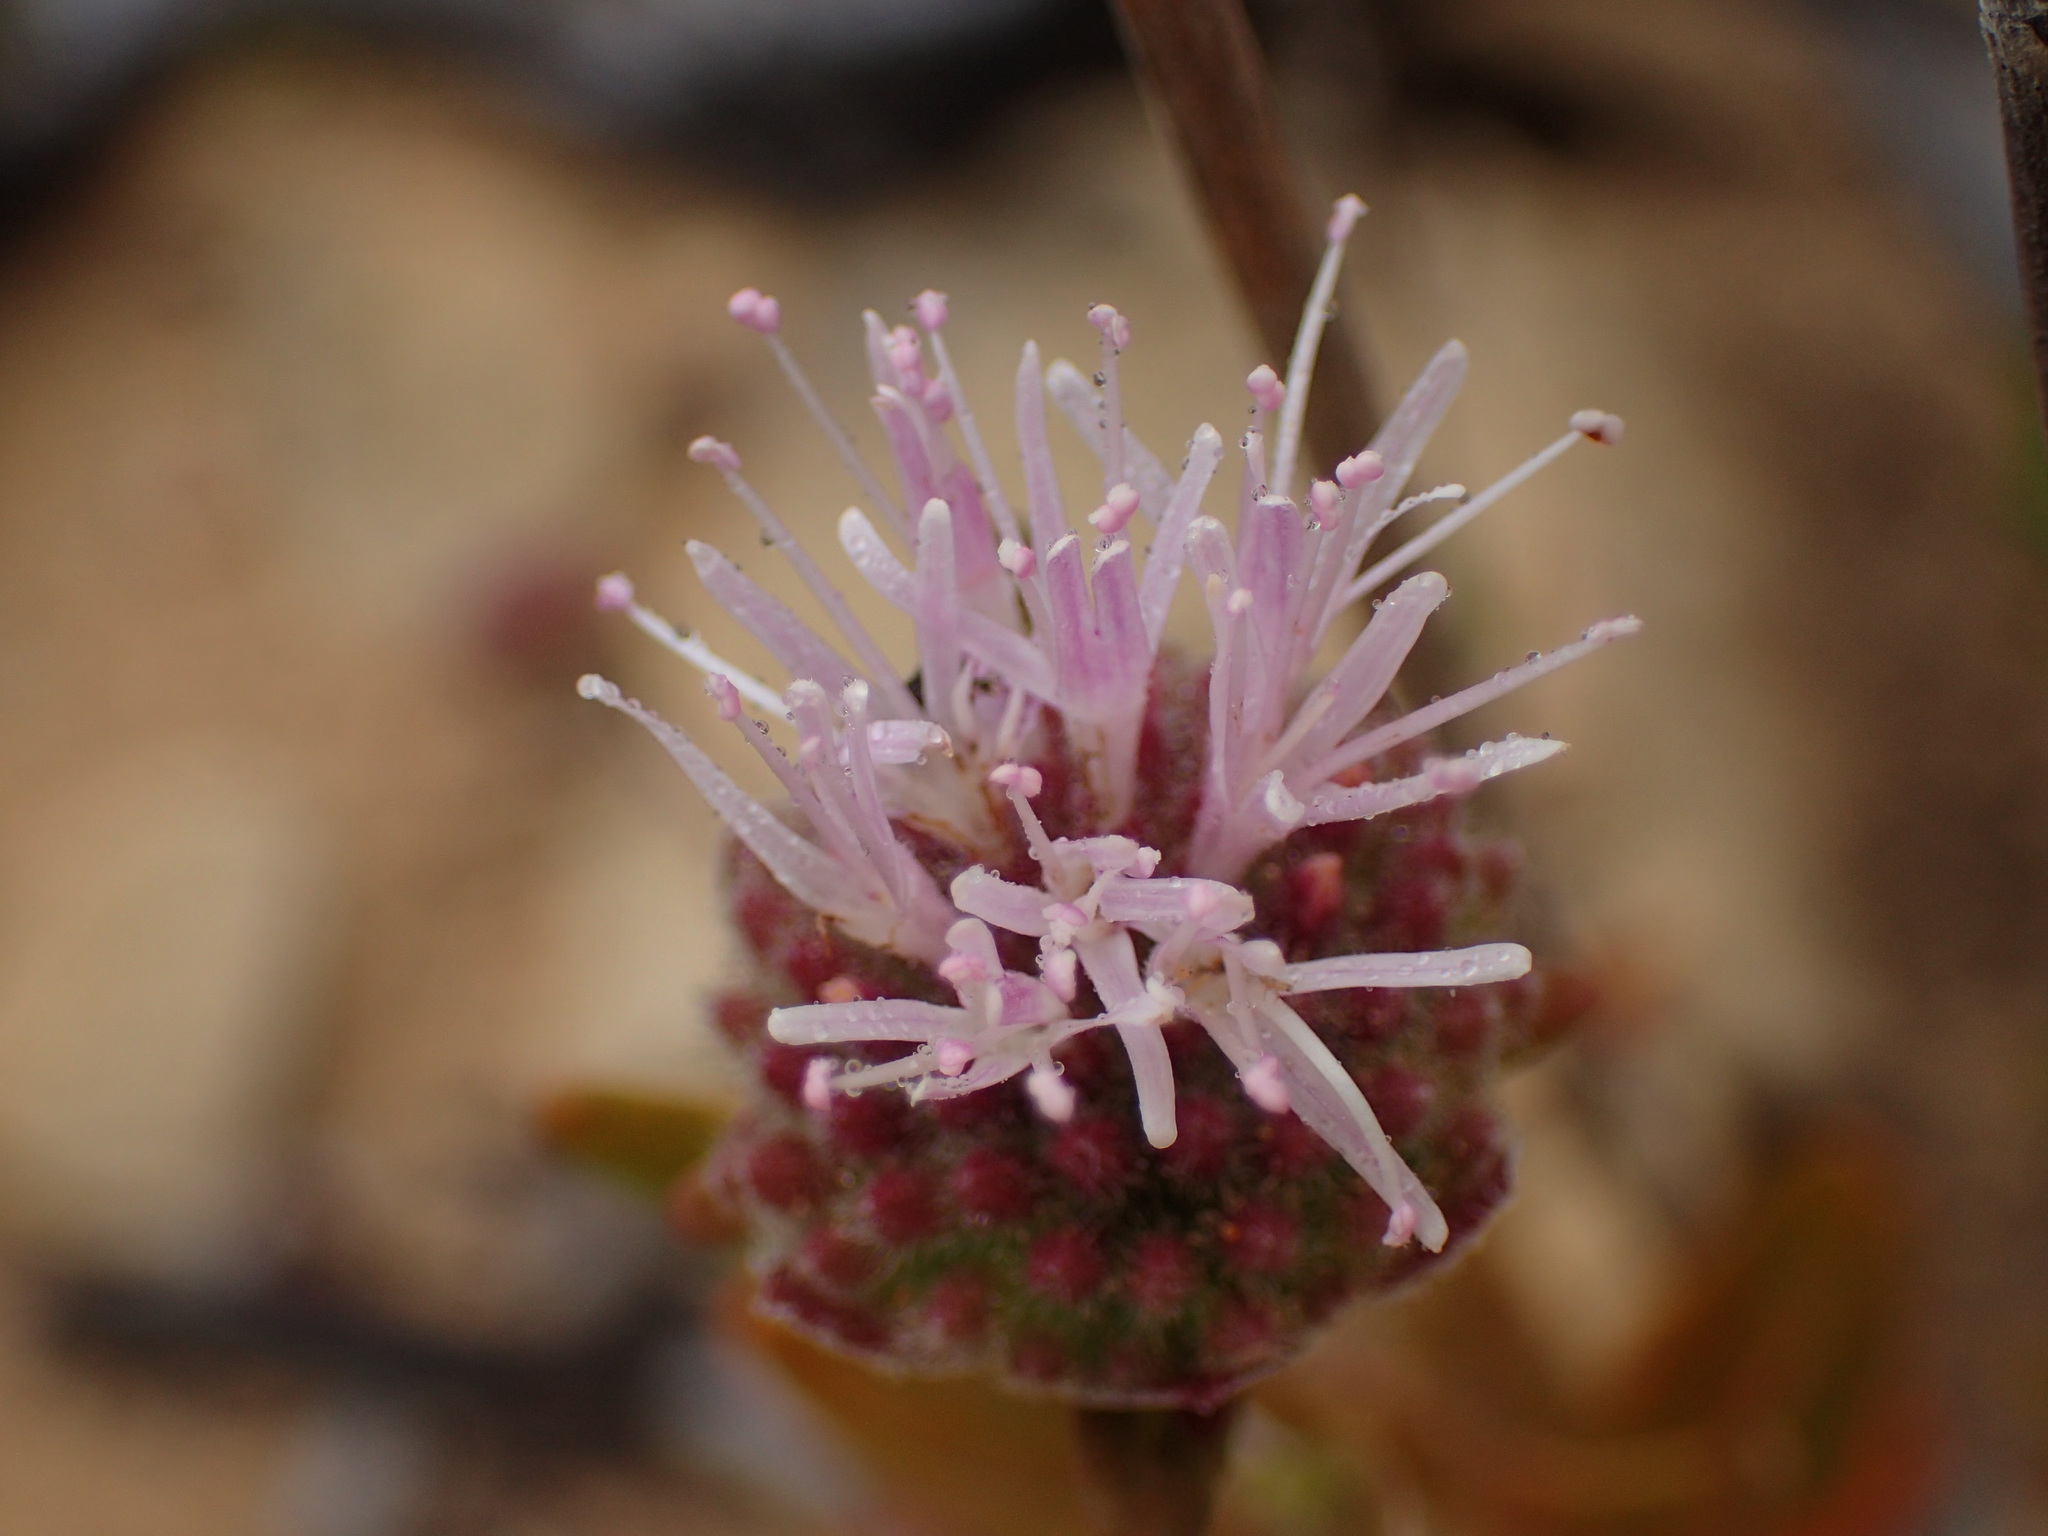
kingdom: Plantae
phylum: Tracheophyta
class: Magnoliopsida
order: Lamiales
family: Lamiaceae
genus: Monardella
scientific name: Monardella hypoleuca
